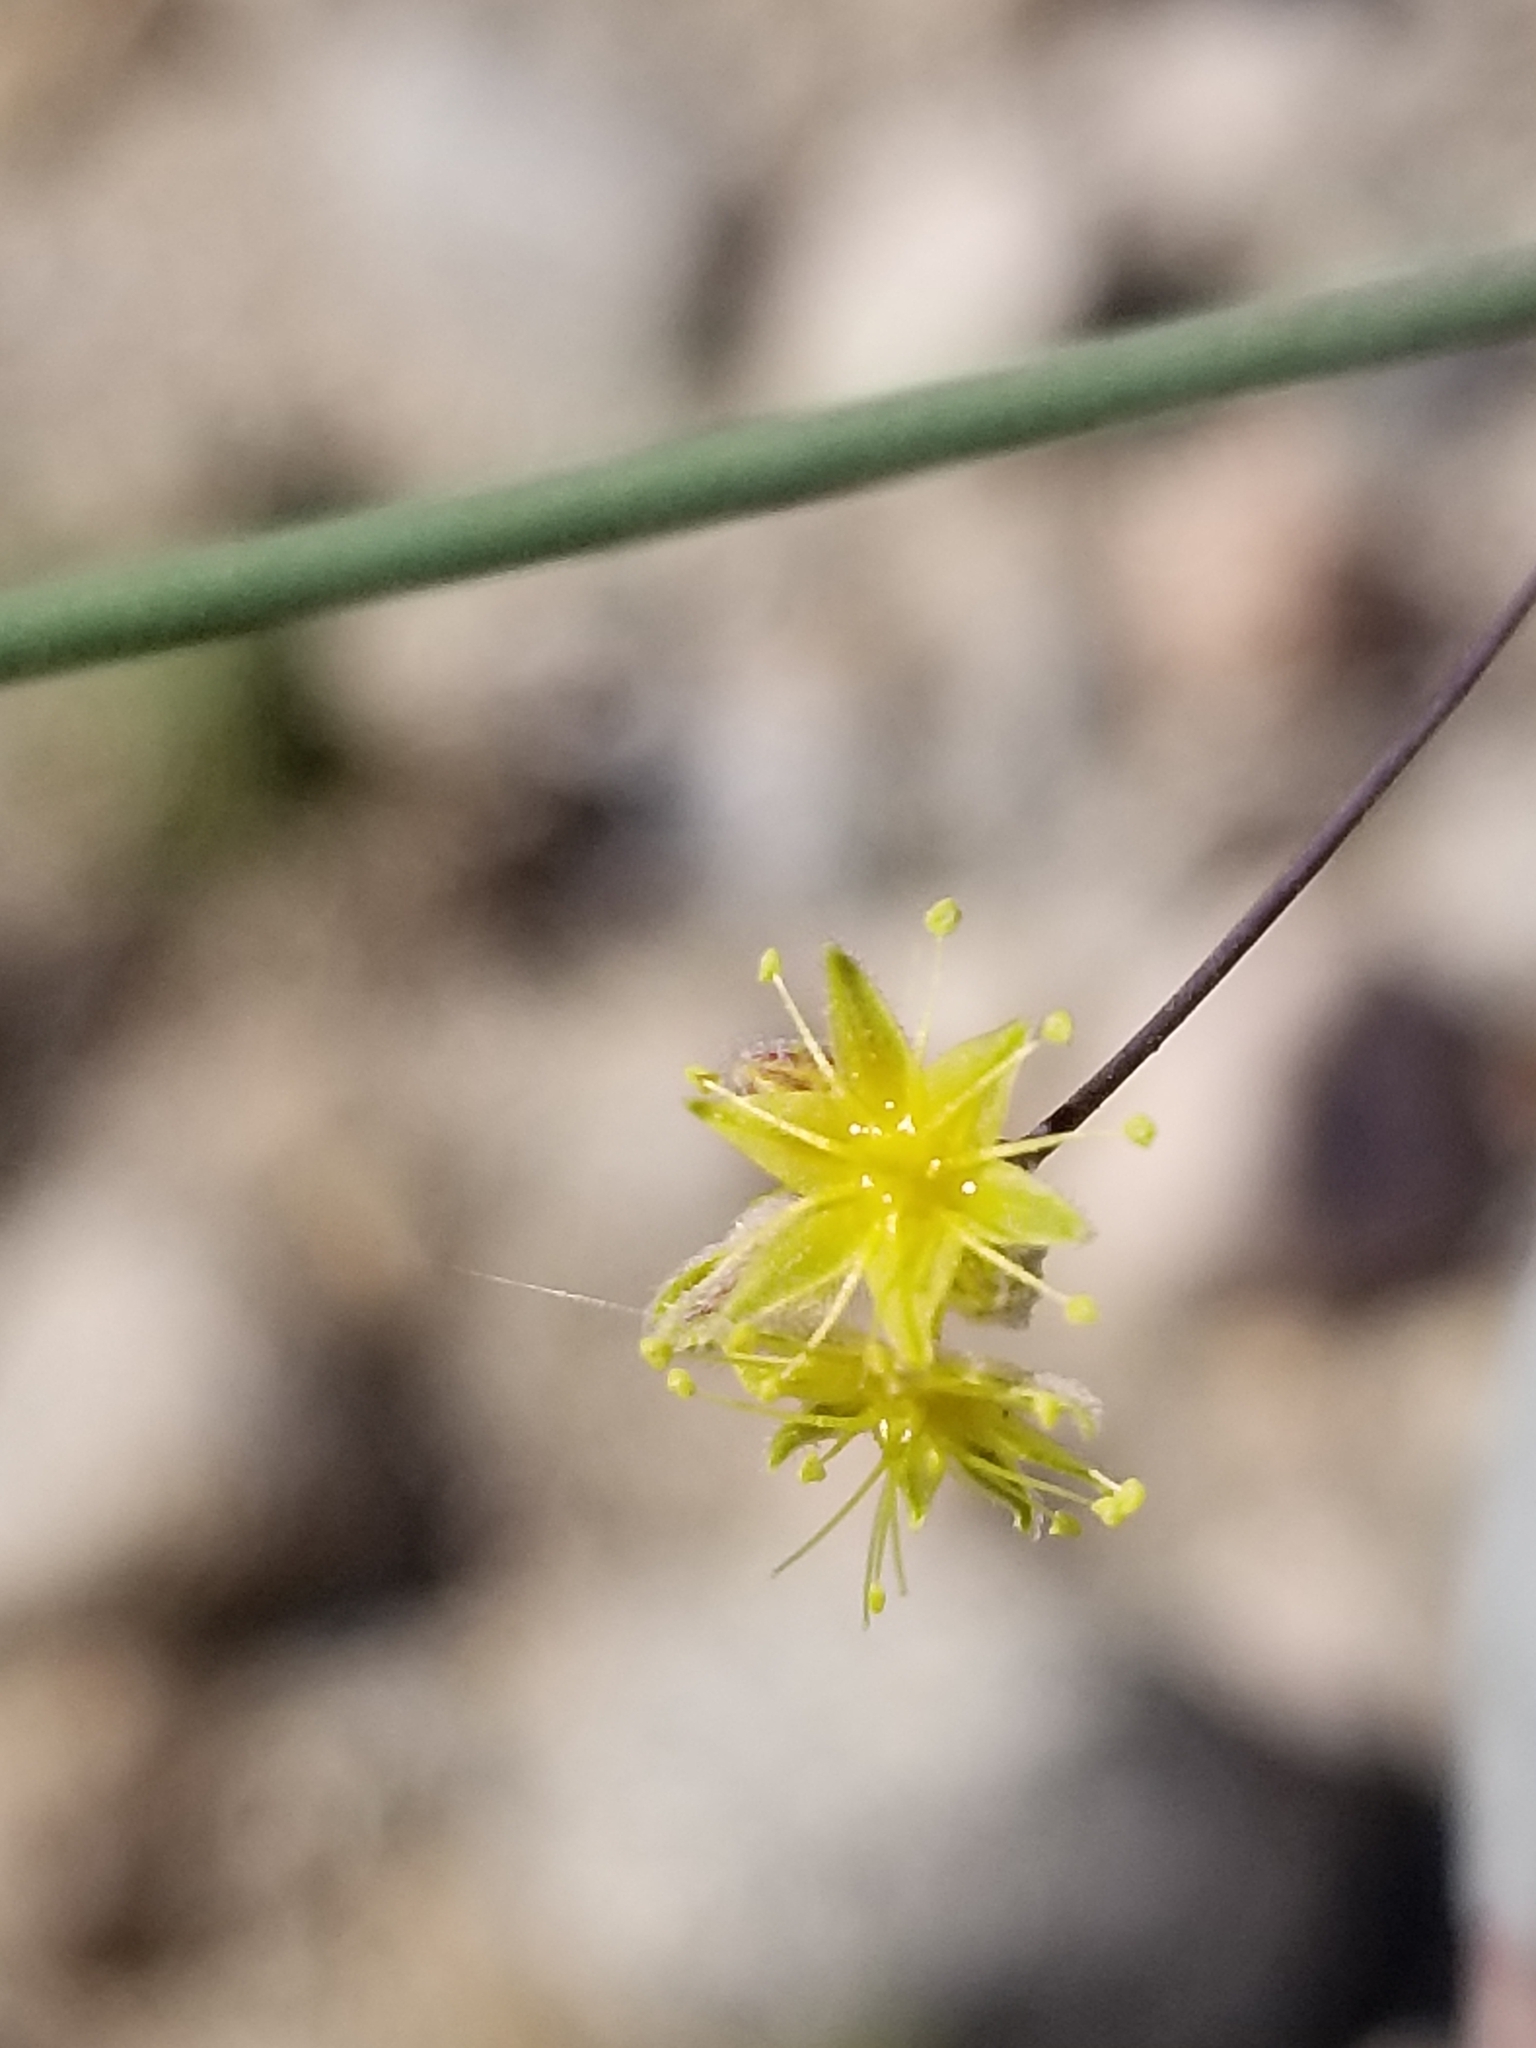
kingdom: Plantae
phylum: Tracheophyta
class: Magnoliopsida
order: Caryophyllales
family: Polygonaceae
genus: Eriogonum
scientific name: Eriogonum inflatum
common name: Desert trumpet
